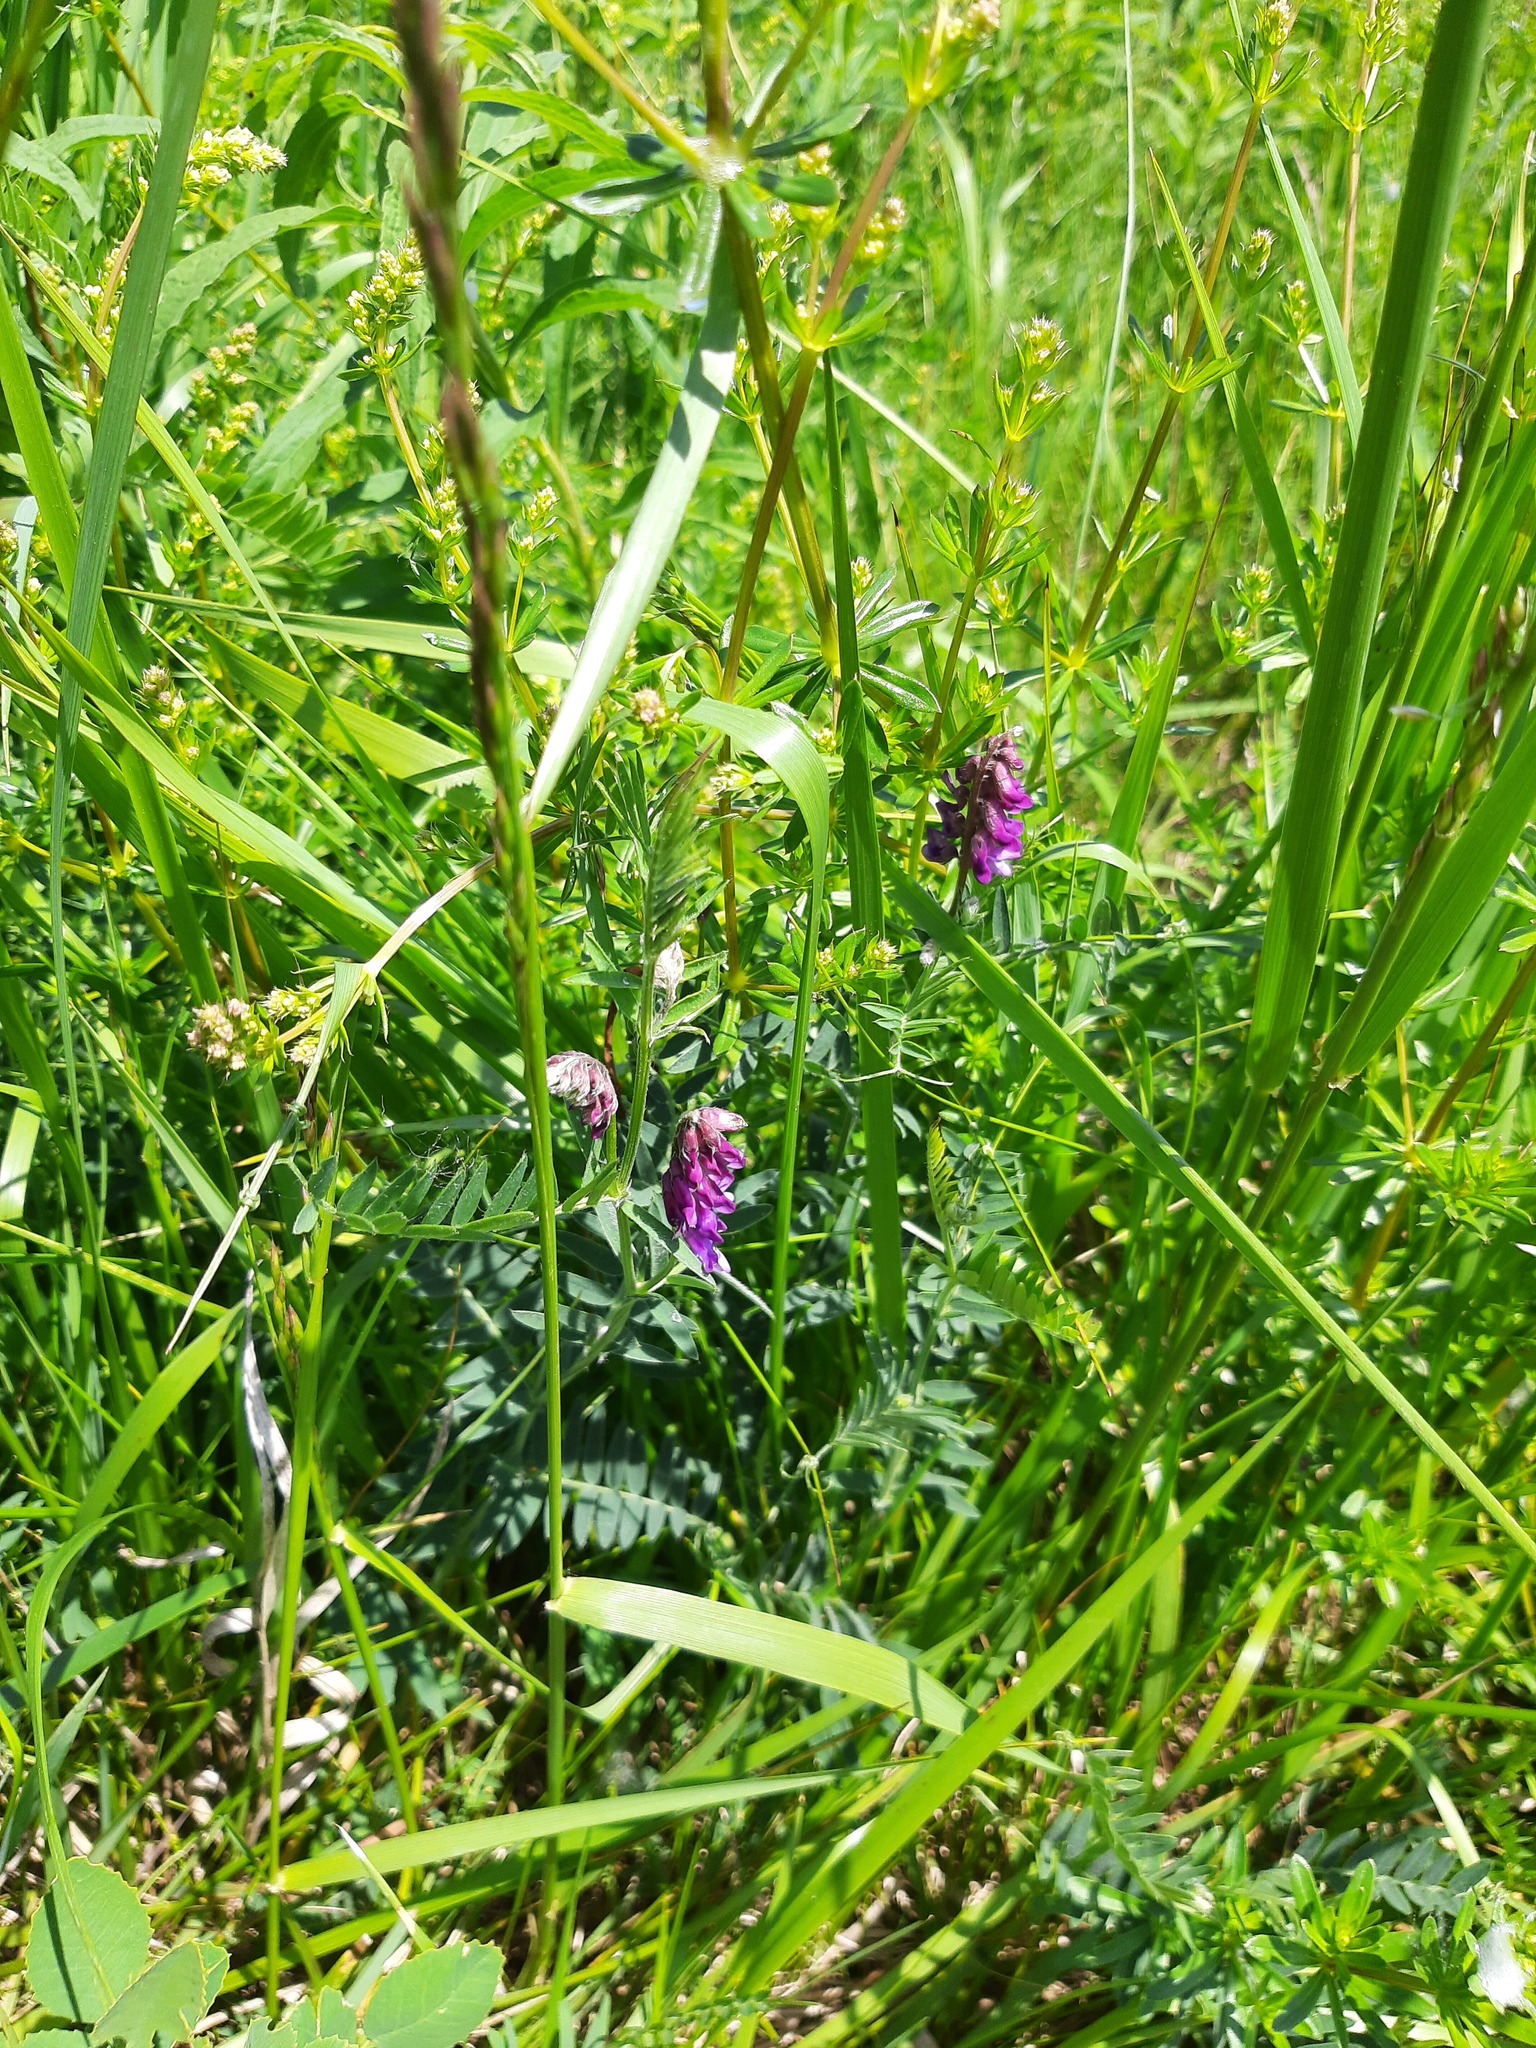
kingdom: Plantae
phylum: Tracheophyta
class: Magnoliopsida
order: Fabales
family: Fabaceae
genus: Vicia
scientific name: Vicia cracca
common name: Bird vetch
